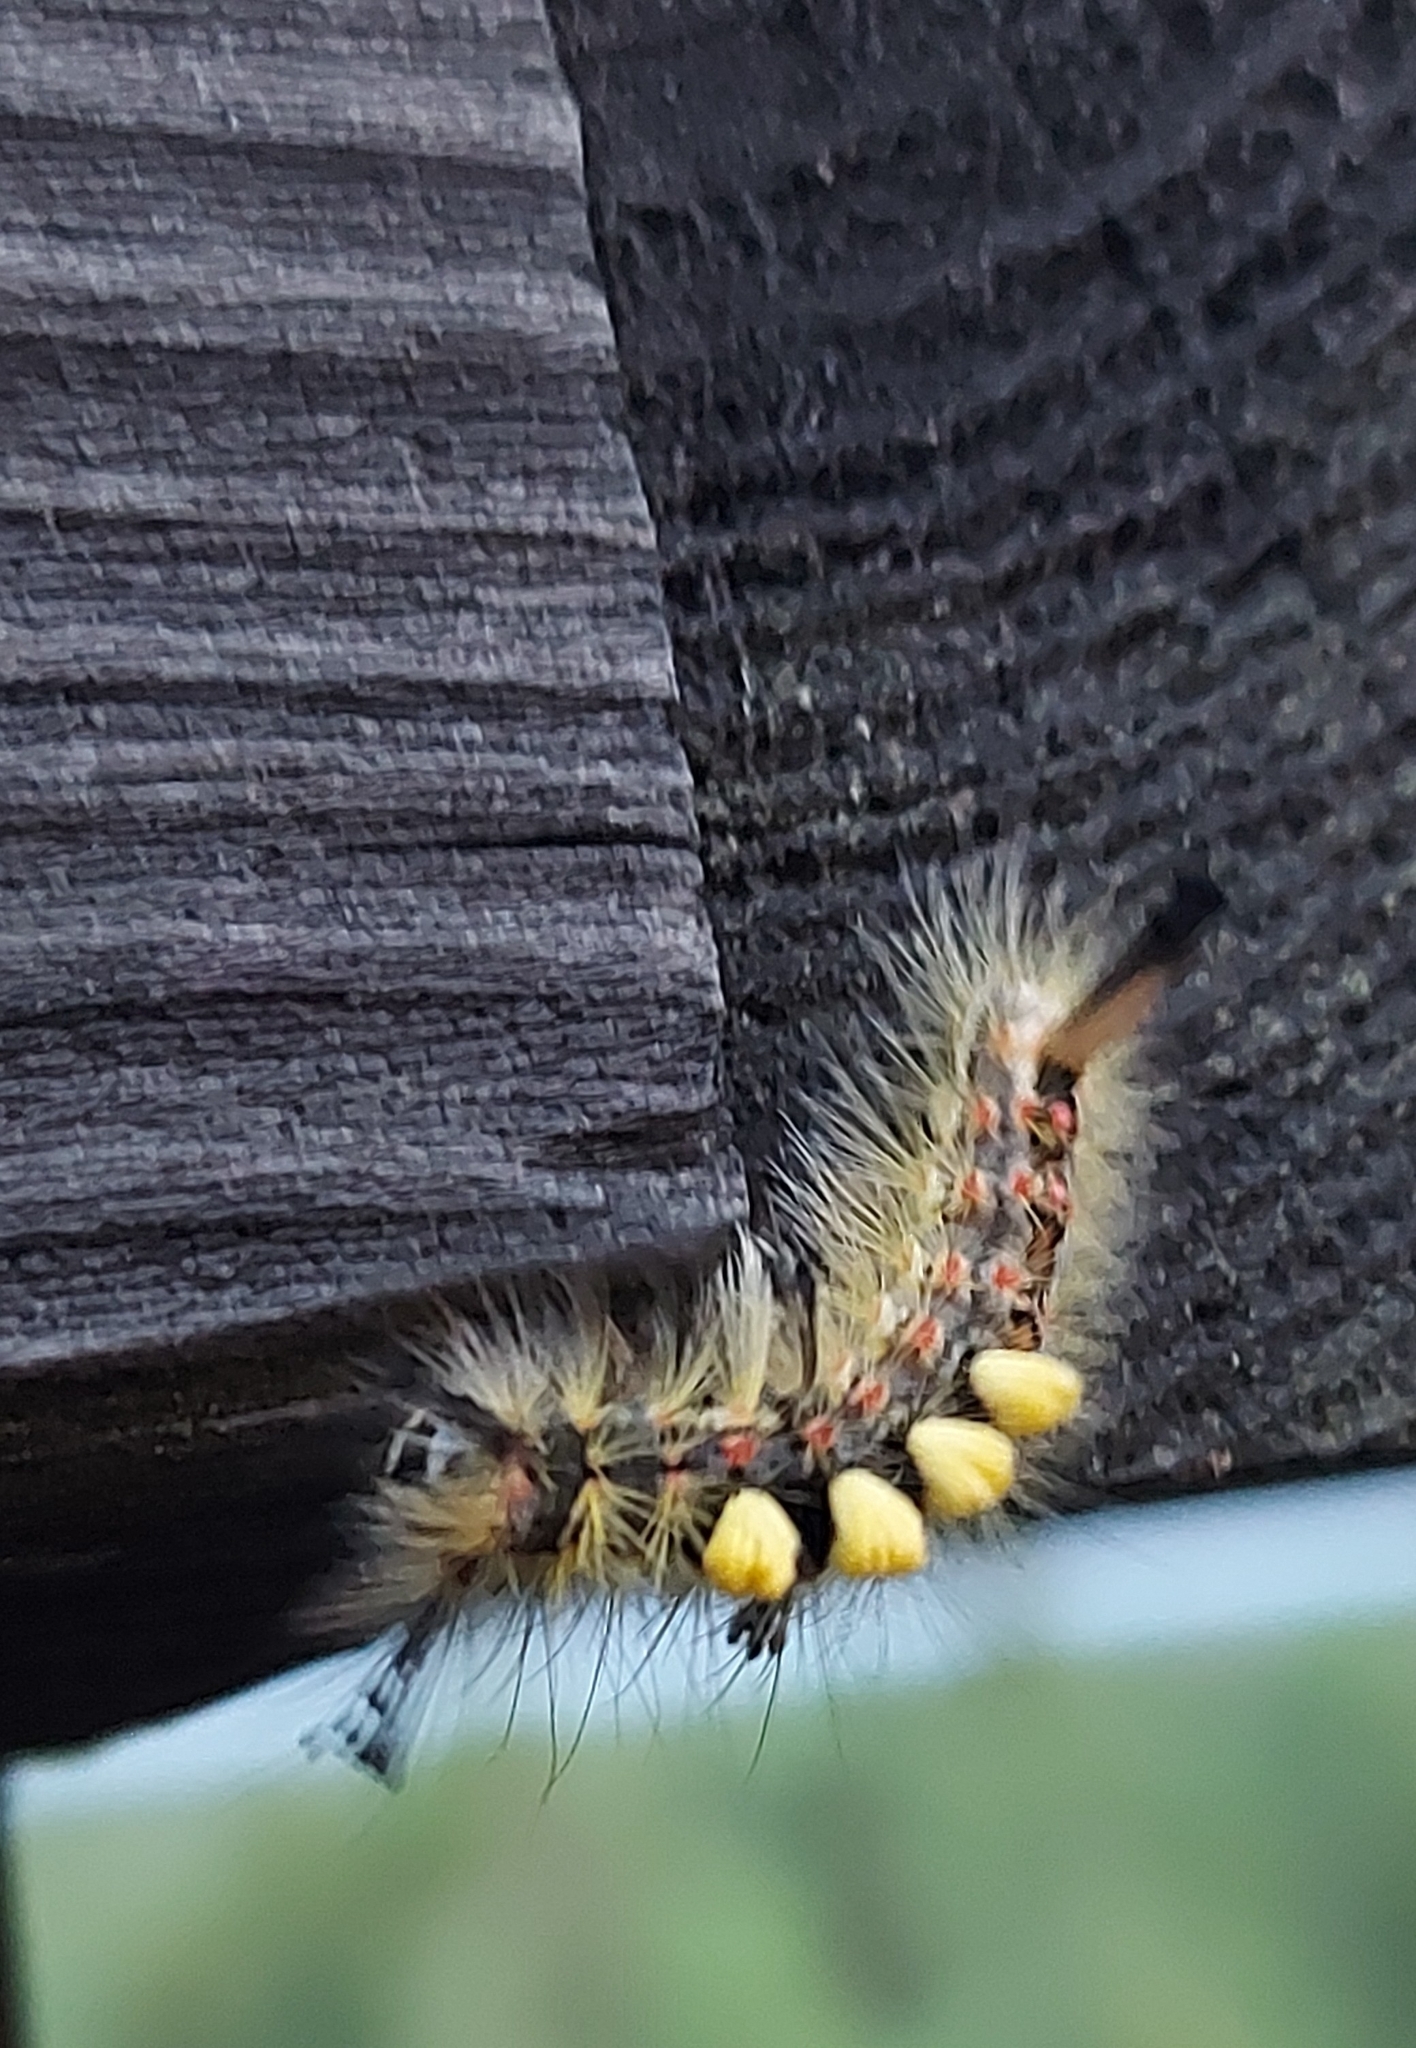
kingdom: Animalia
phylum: Arthropoda
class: Insecta
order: Lepidoptera
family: Erebidae
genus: Orgyia
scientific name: Orgyia antiqua
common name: Vapourer
